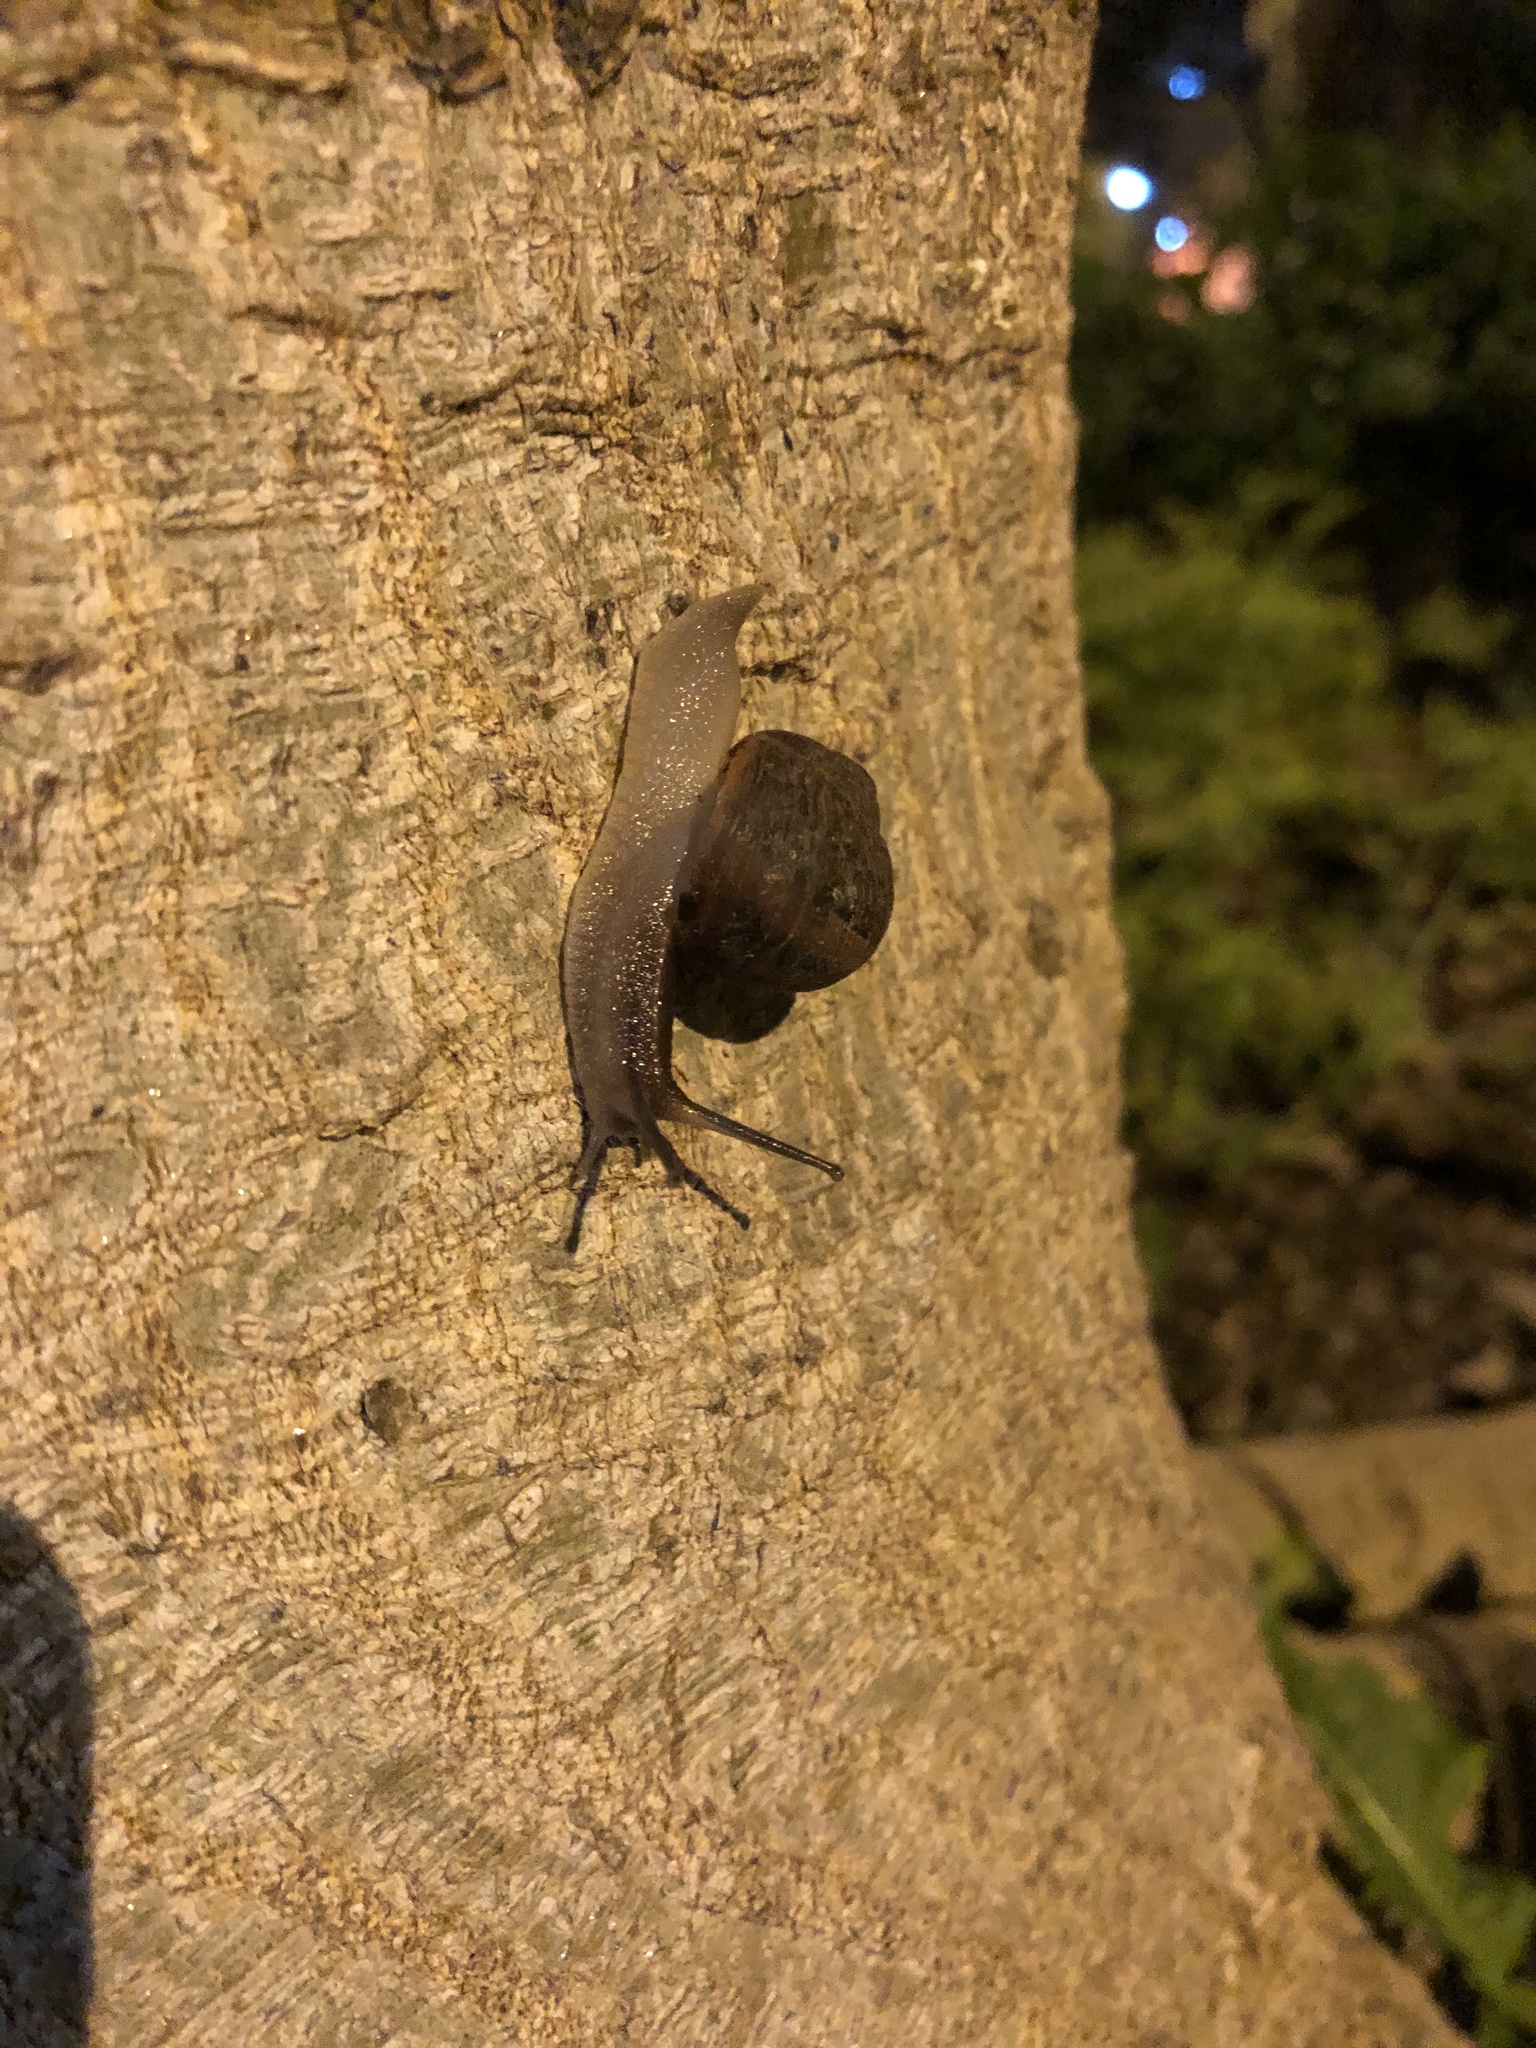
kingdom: Animalia
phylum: Mollusca
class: Gastropoda
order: Stylommatophora
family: Helicidae
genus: Cornu
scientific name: Cornu aspersum
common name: Brown garden snail
